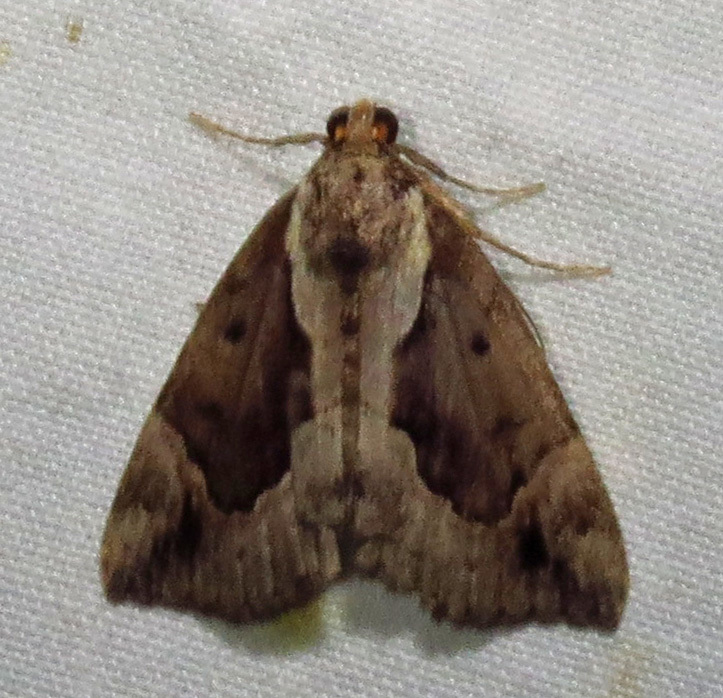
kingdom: Animalia
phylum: Arthropoda
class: Insecta
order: Lepidoptera
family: Erebidae
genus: Hypena
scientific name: Hypena baltimoralis
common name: Baltimore snout
